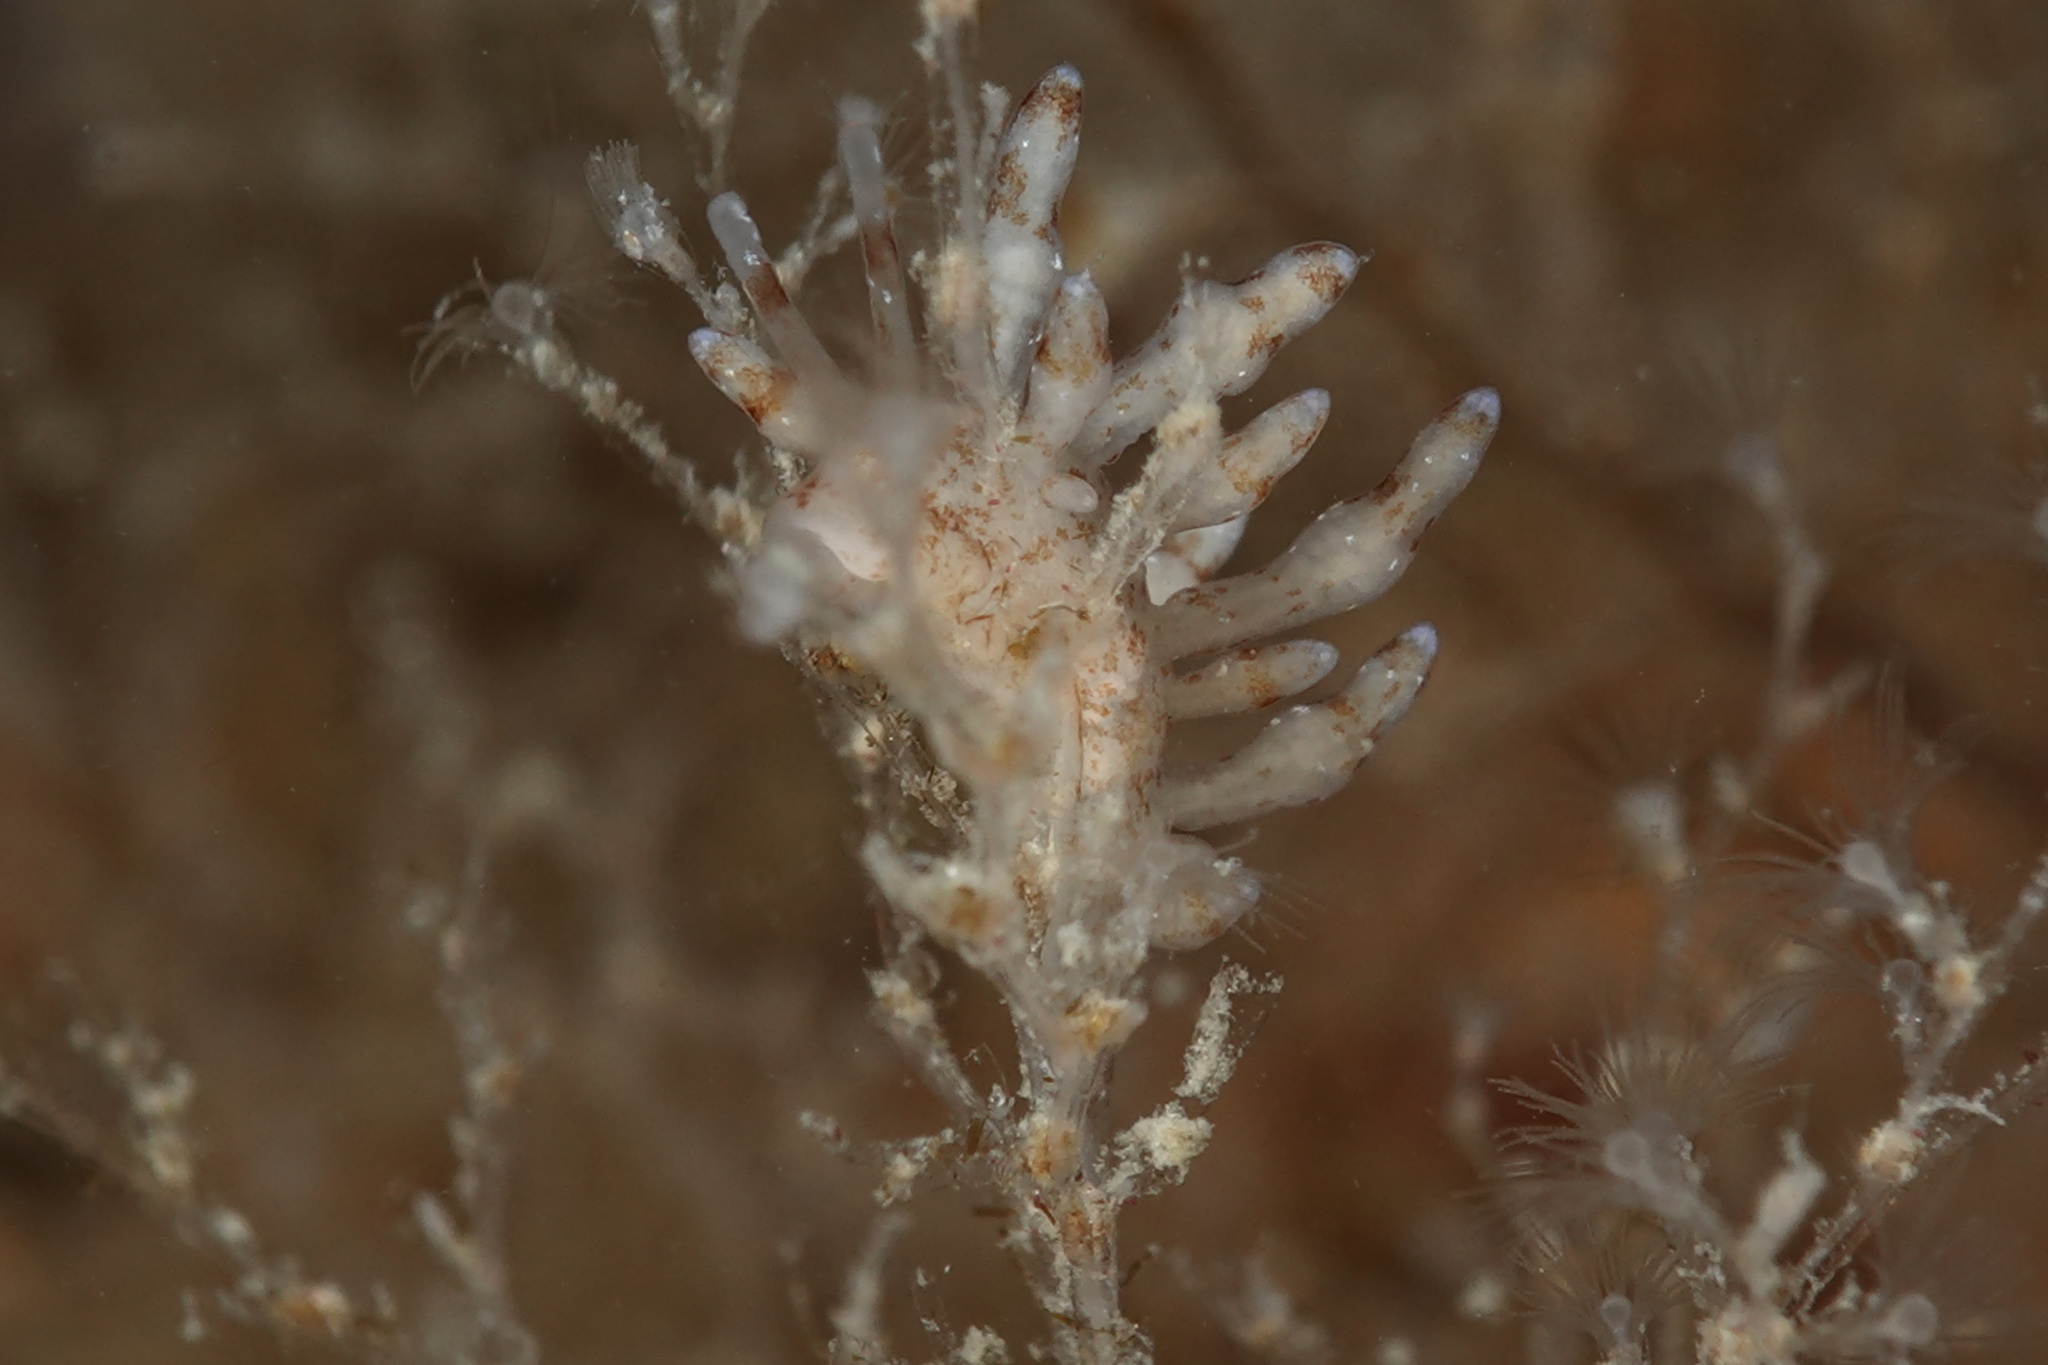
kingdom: Animalia
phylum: Mollusca
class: Gastropoda
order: Nudibranchia
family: Eubranchidae
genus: Eubranchus
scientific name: Eubranchus rupium
